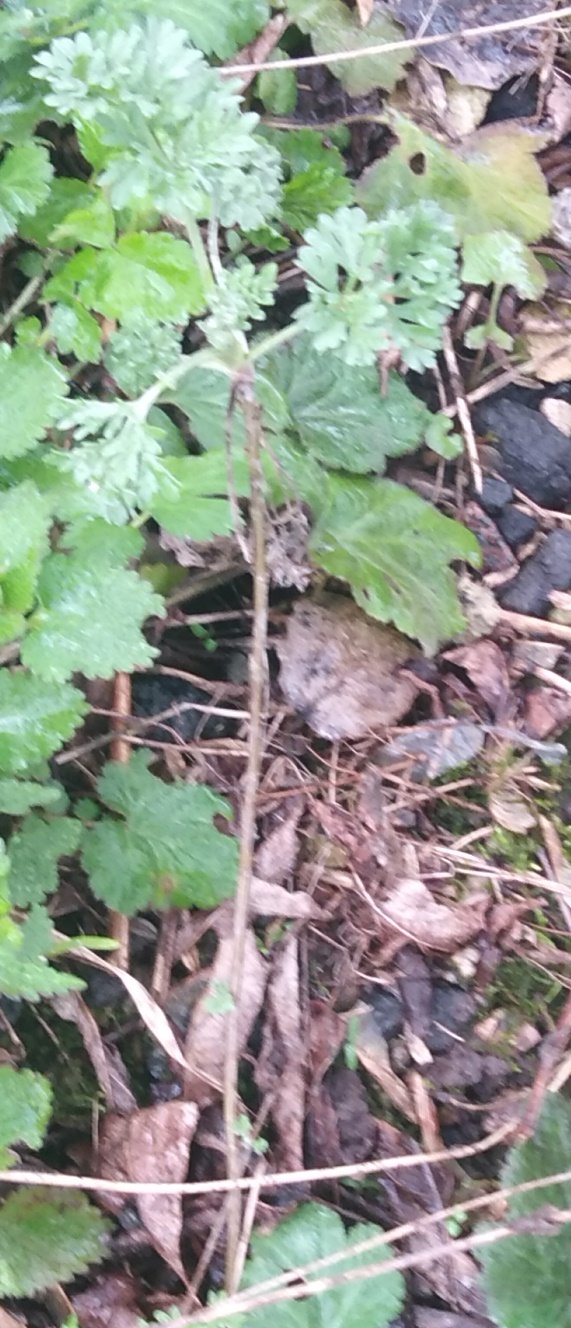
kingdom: Plantae
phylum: Tracheophyta
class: Magnoliopsida
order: Asterales
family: Asteraceae
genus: Artemisia
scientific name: Artemisia absinthium
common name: Wormwood
